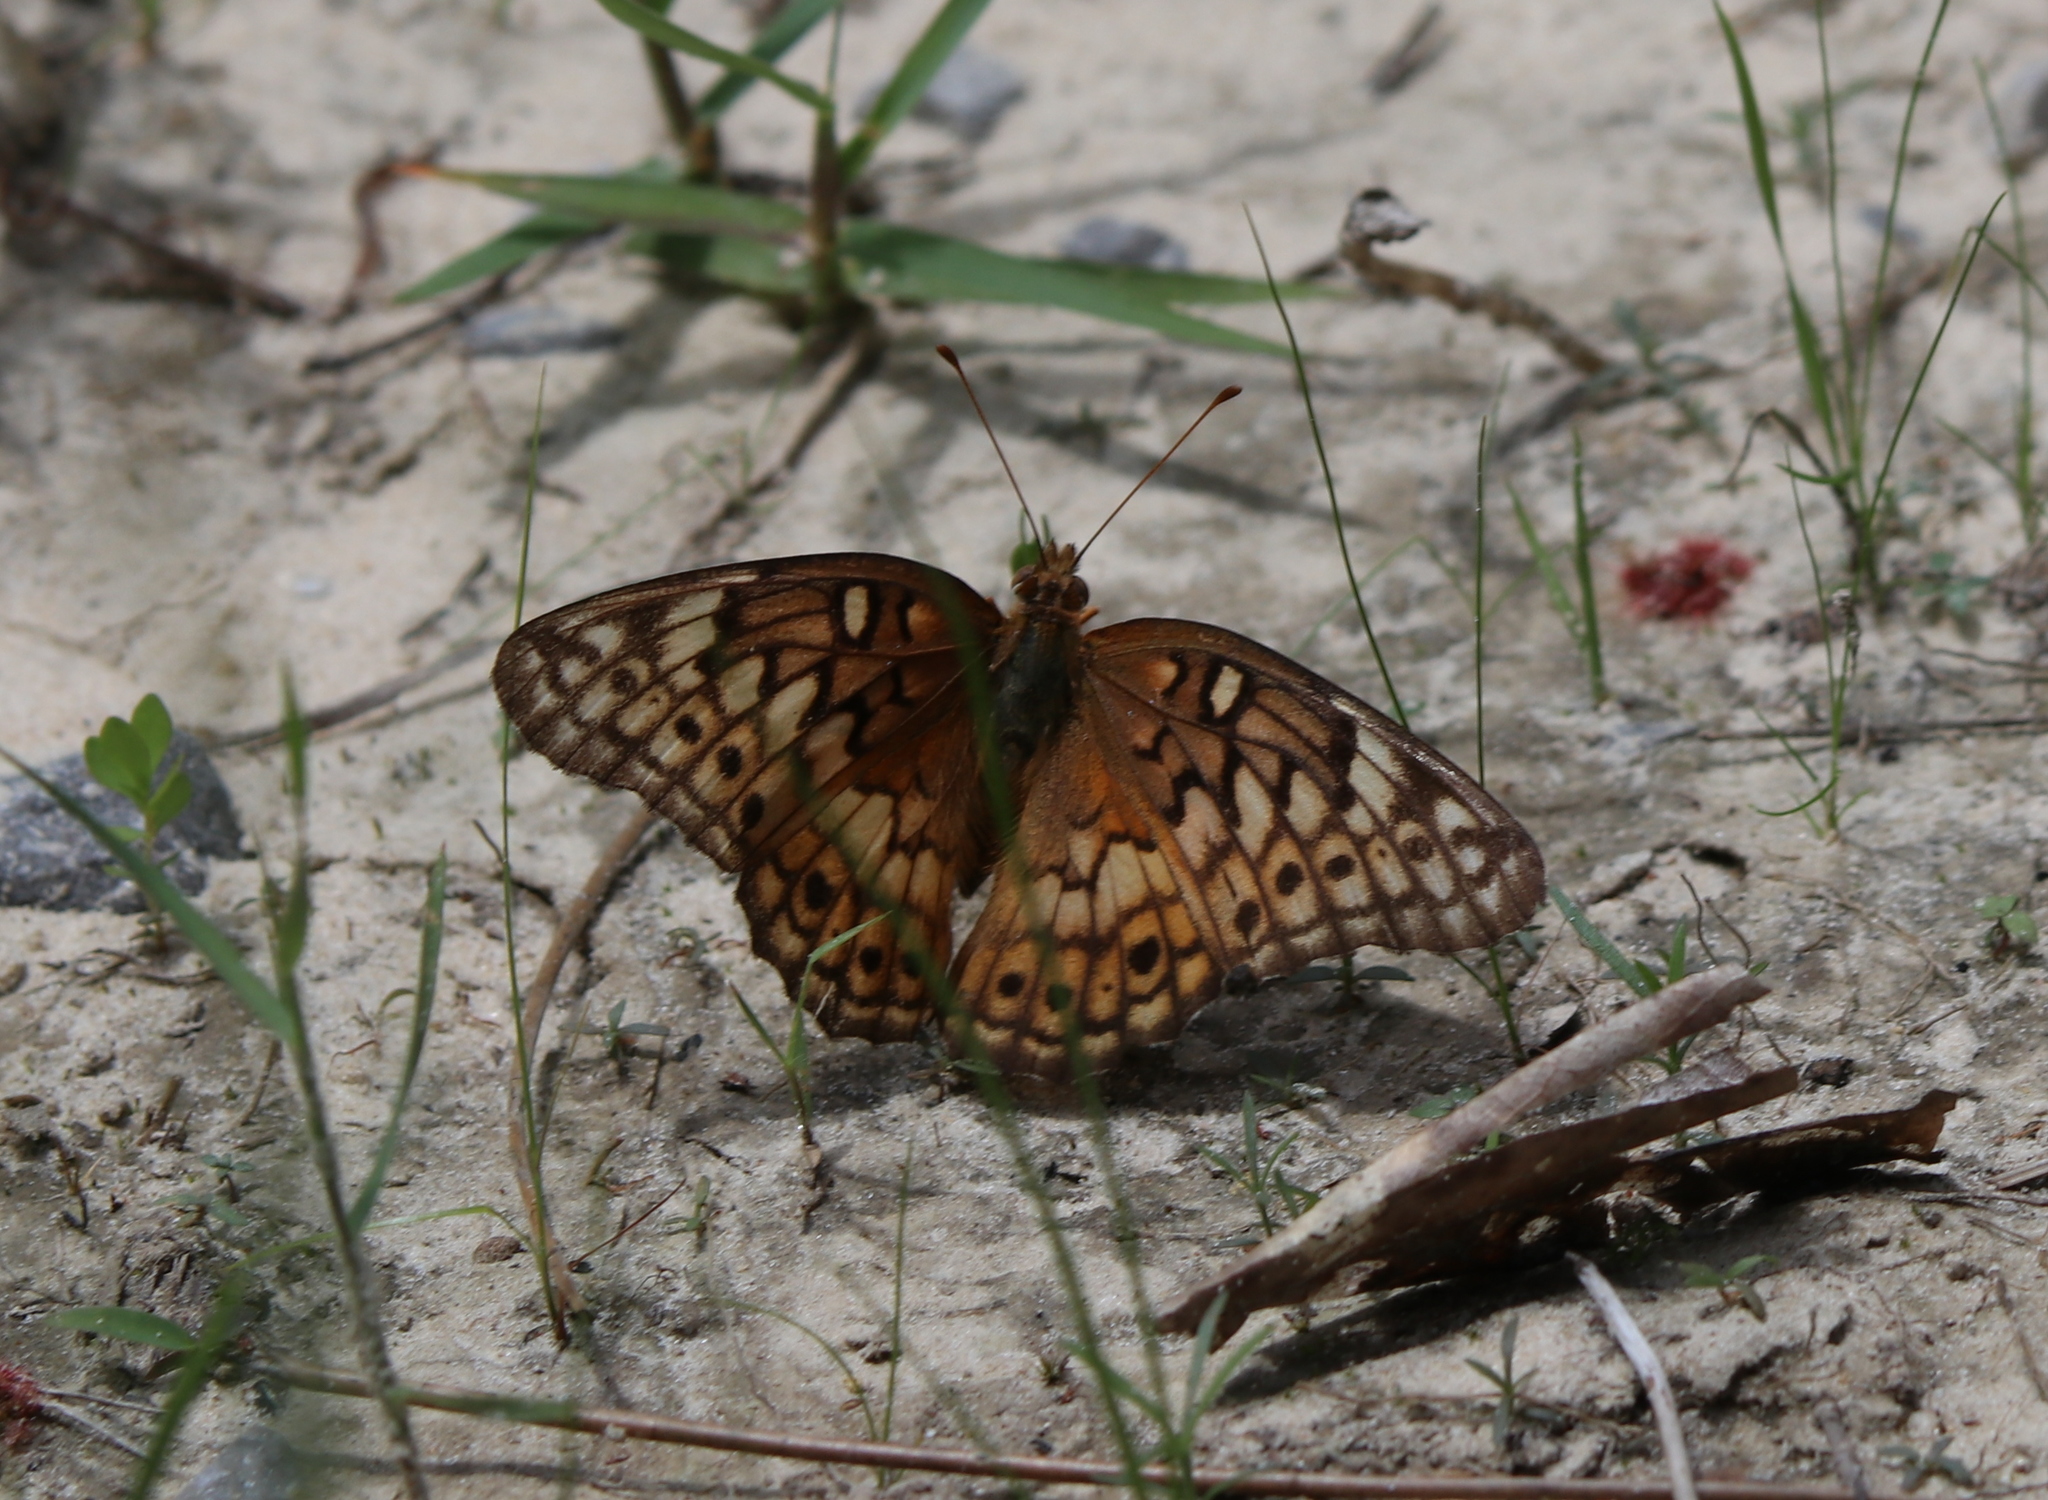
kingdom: Animalia
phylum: Arthropoda
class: Insecta
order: Lepidoptera
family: Nymphalidae
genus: Euptoieta
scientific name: Euptoieta claudia
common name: Variegated fritillary
